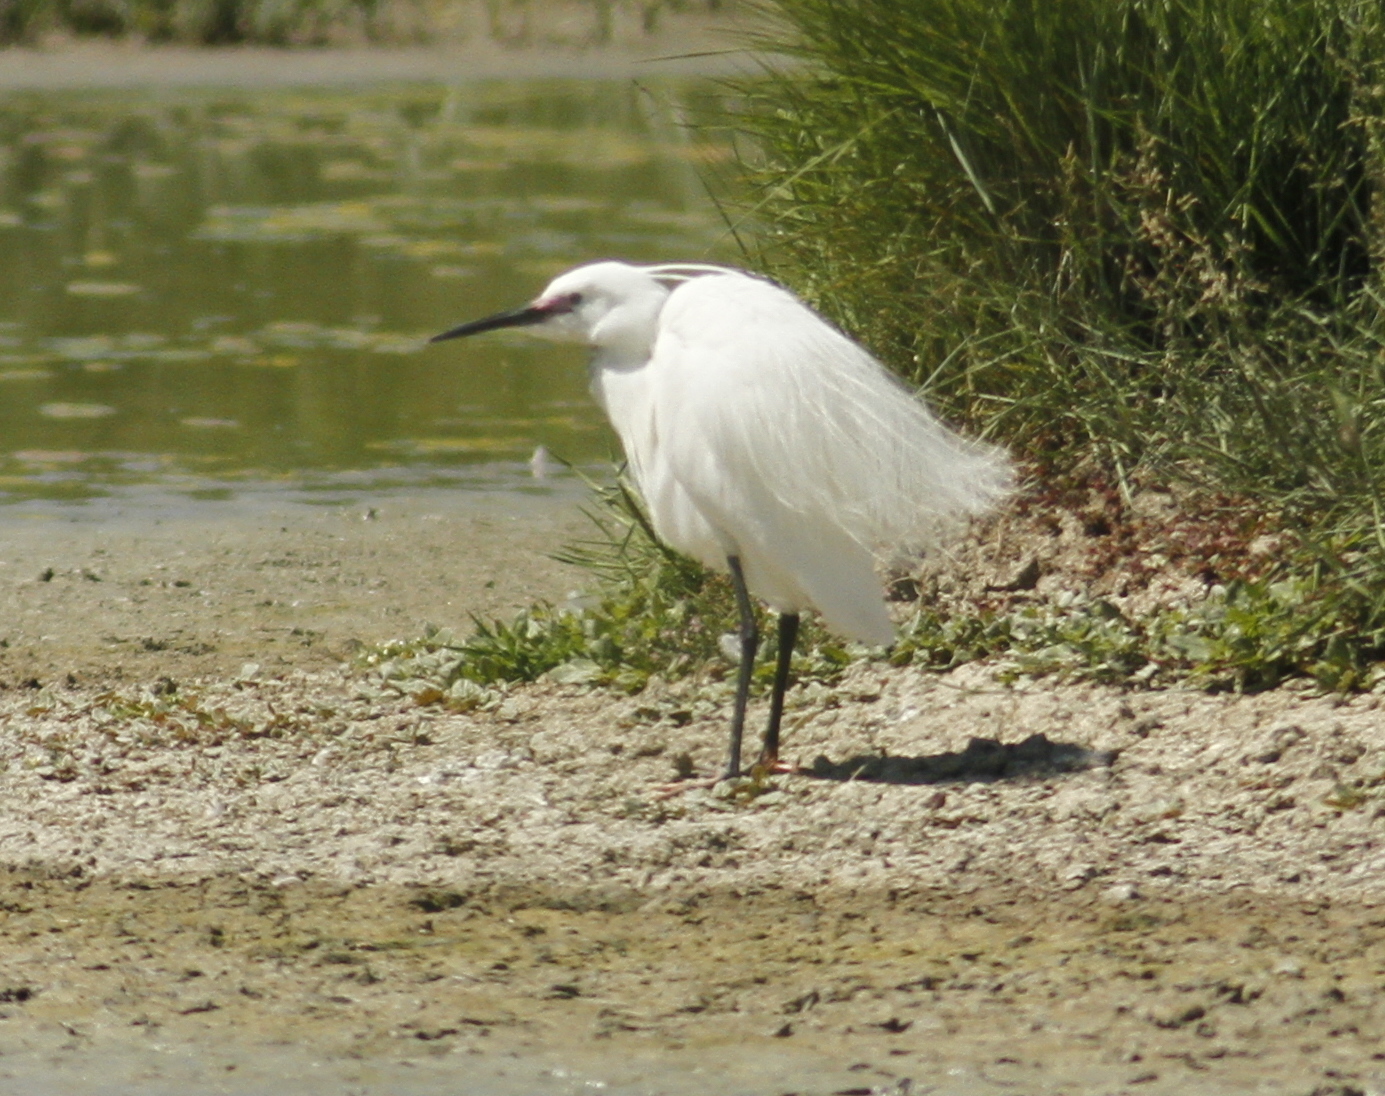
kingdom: Animalia
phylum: Chordata
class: Aves
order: Pelecaniformes
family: Ardeidae
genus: Egretta
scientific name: Egretta garzetta
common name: Little egret
